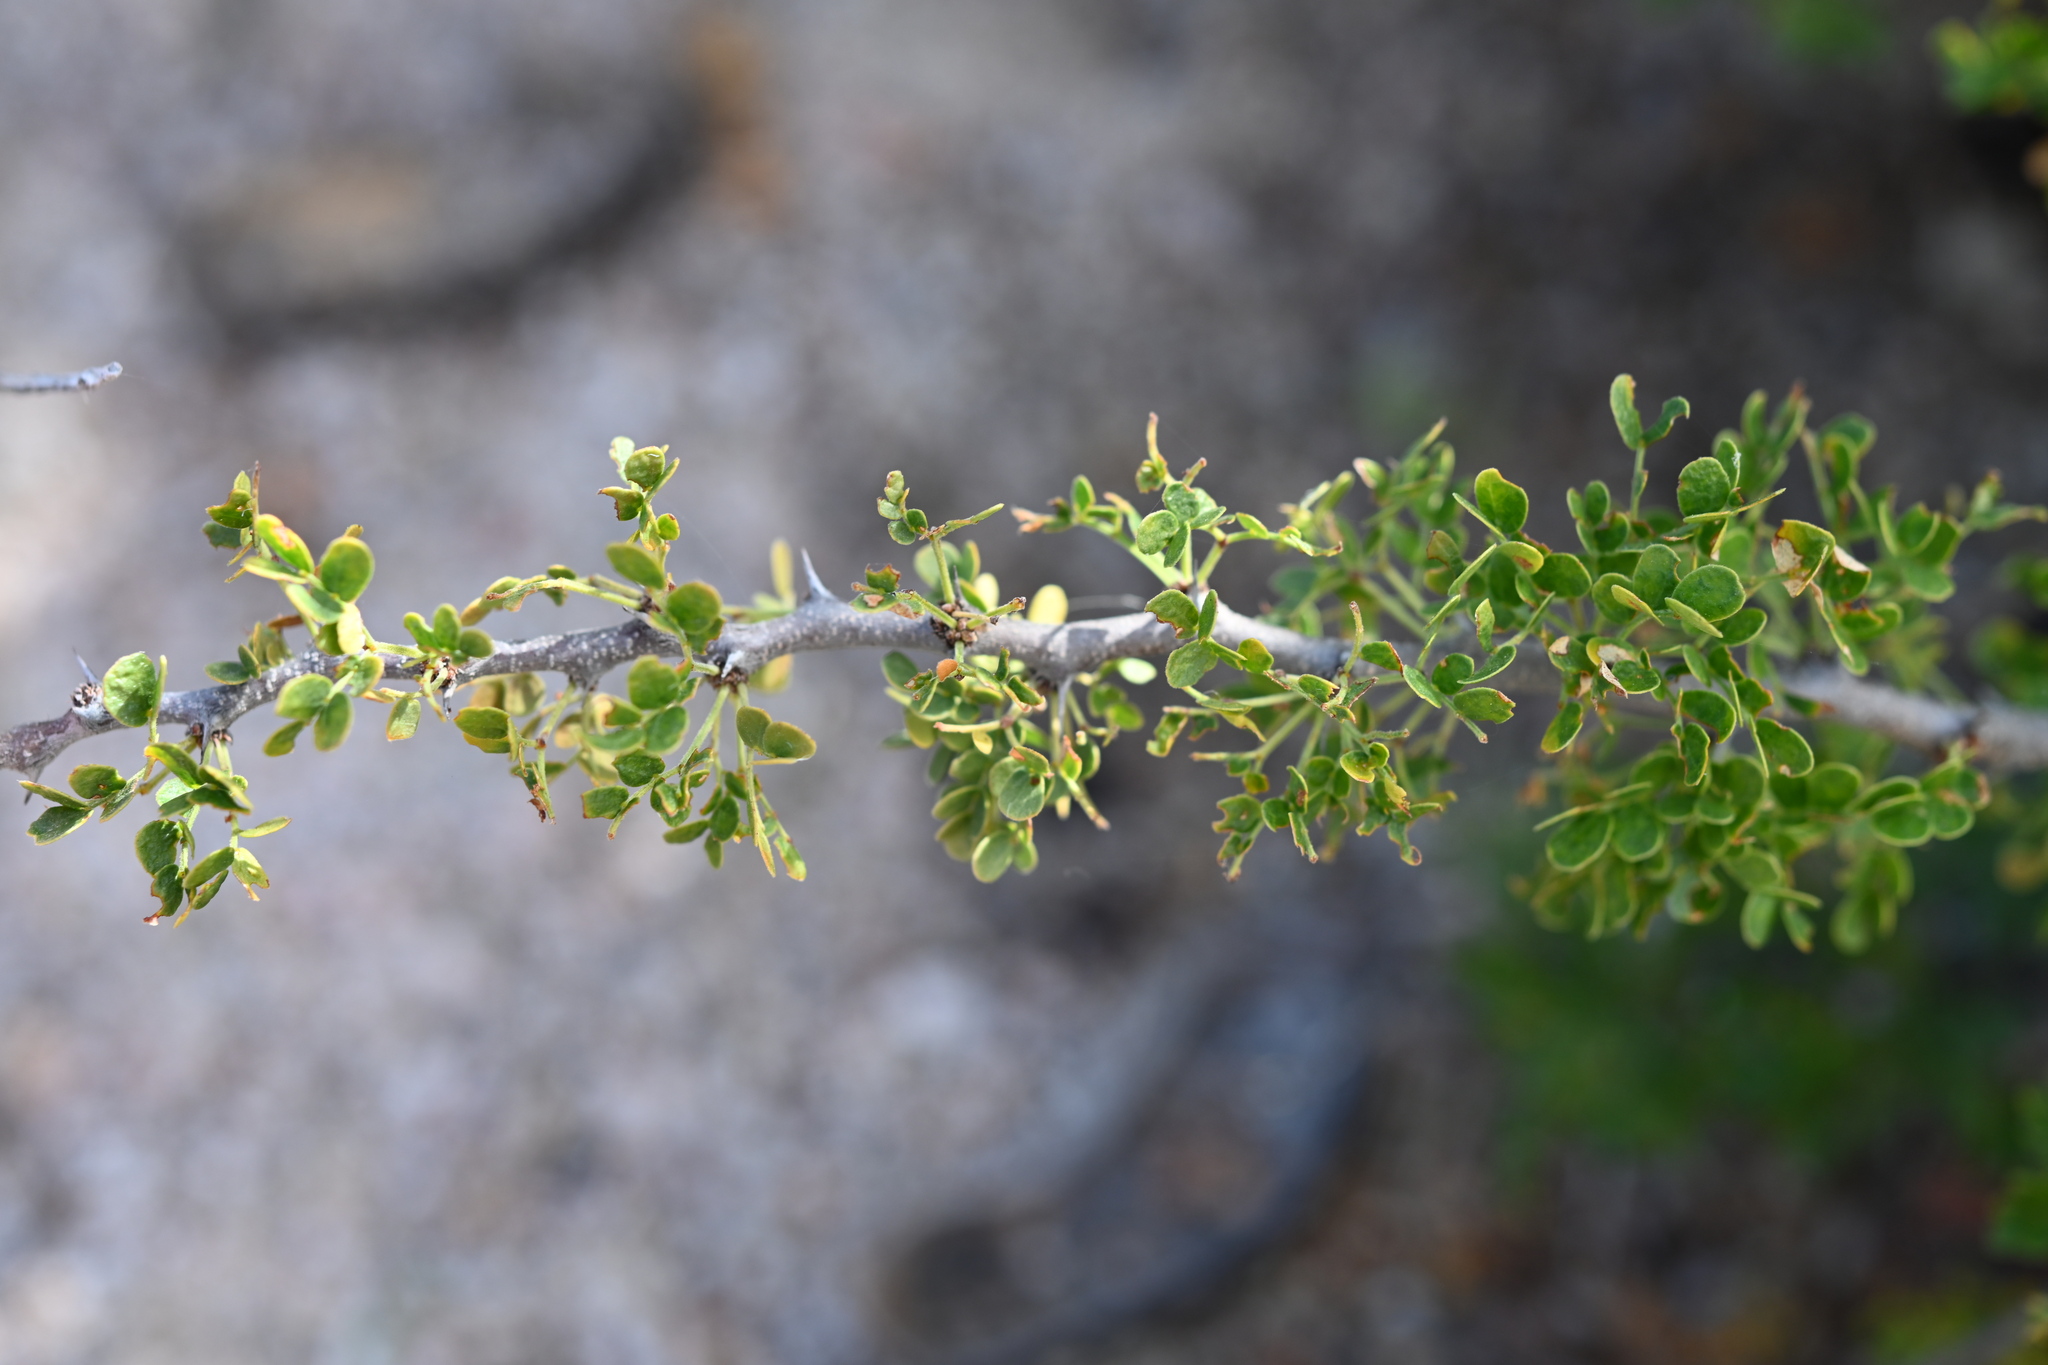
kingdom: Plantae
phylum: Tracheophyta
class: Magnoliopsida
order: Fabales
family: Fabaceae
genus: Ebenopsis
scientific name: Ebenopsis confinis
